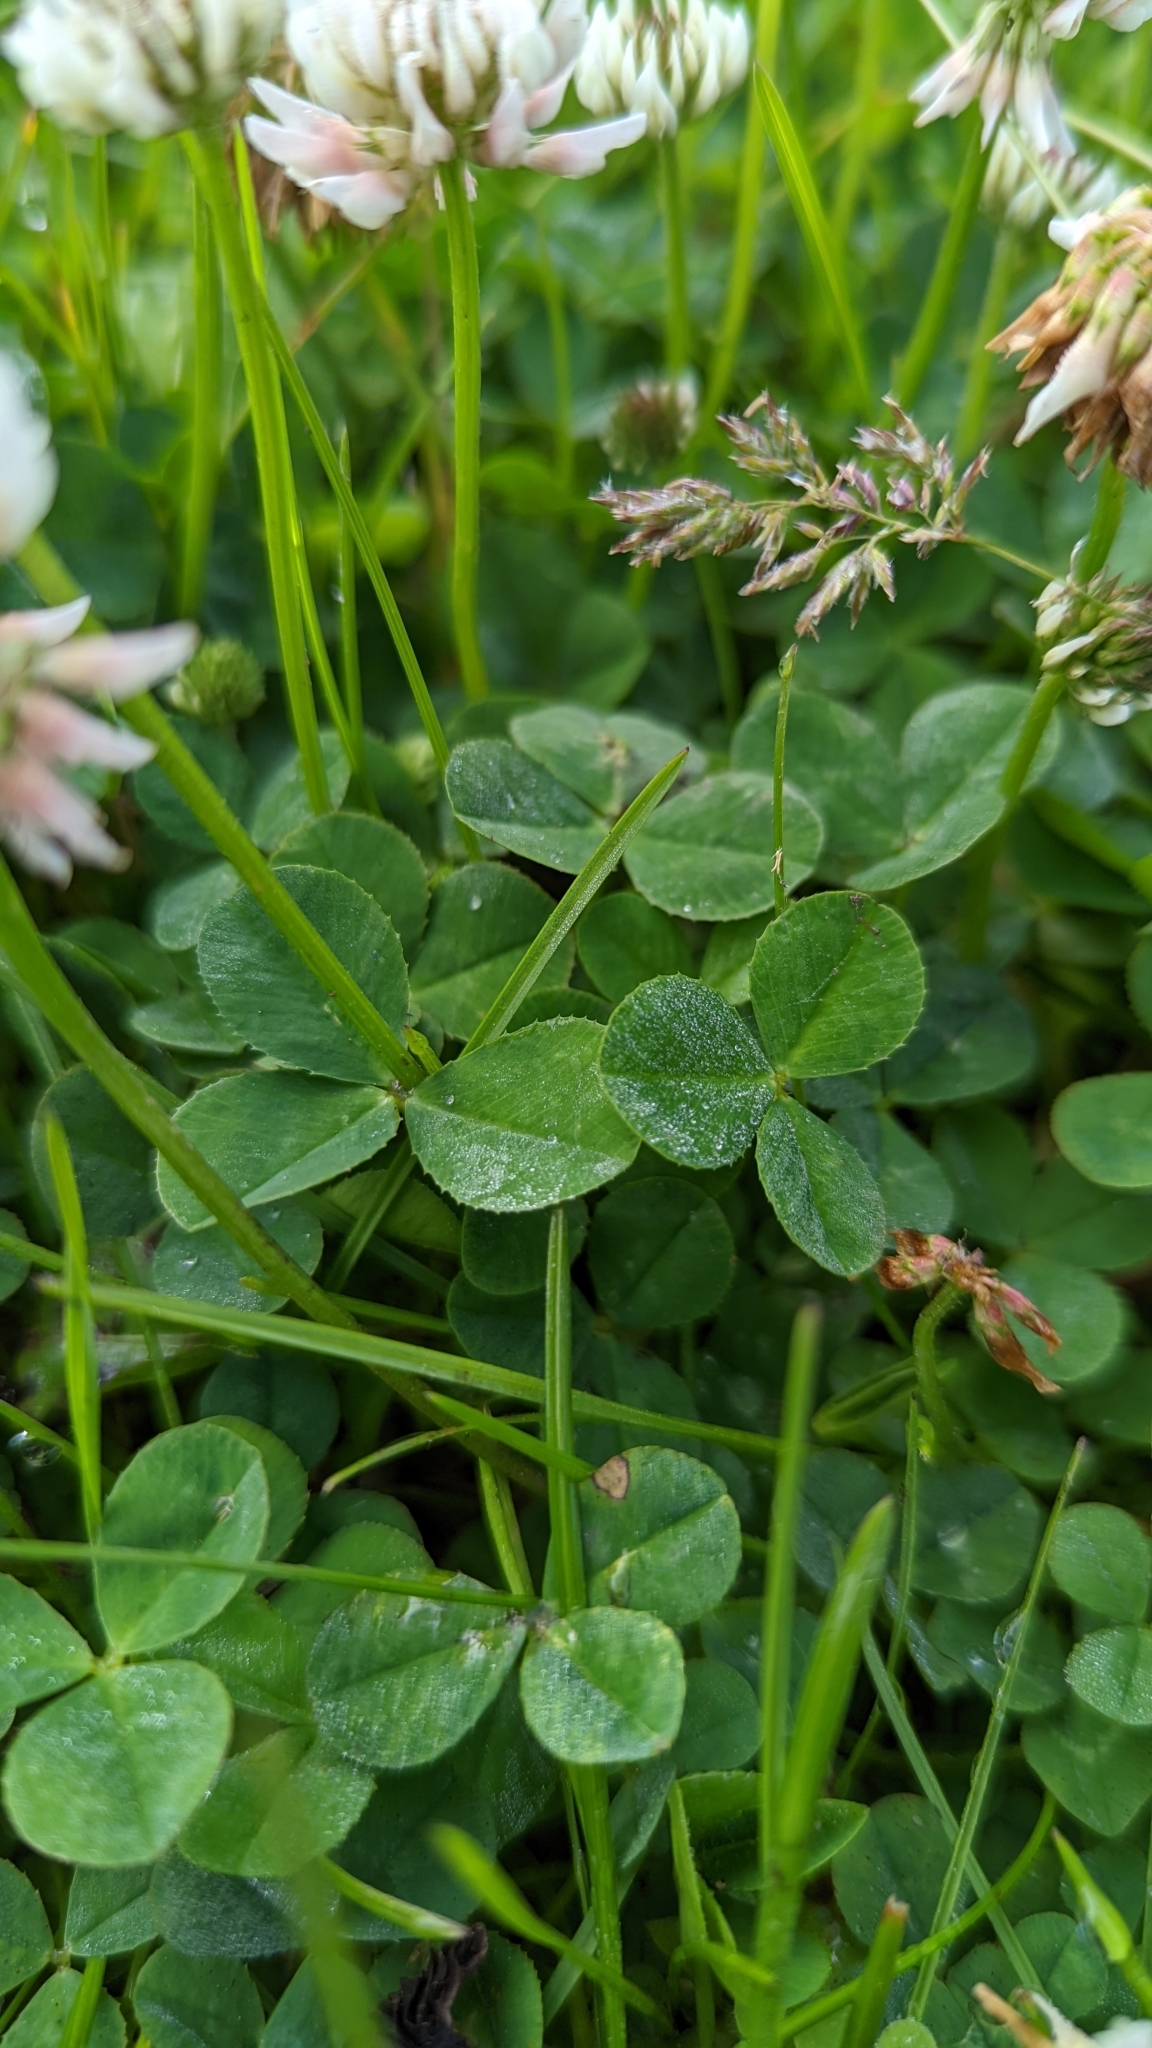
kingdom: Plantae
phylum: Tracheophyta
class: Magnoliopsida
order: Fabales
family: Fabaceae
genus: Trifolium
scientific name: Trifolium repens
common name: White clover
